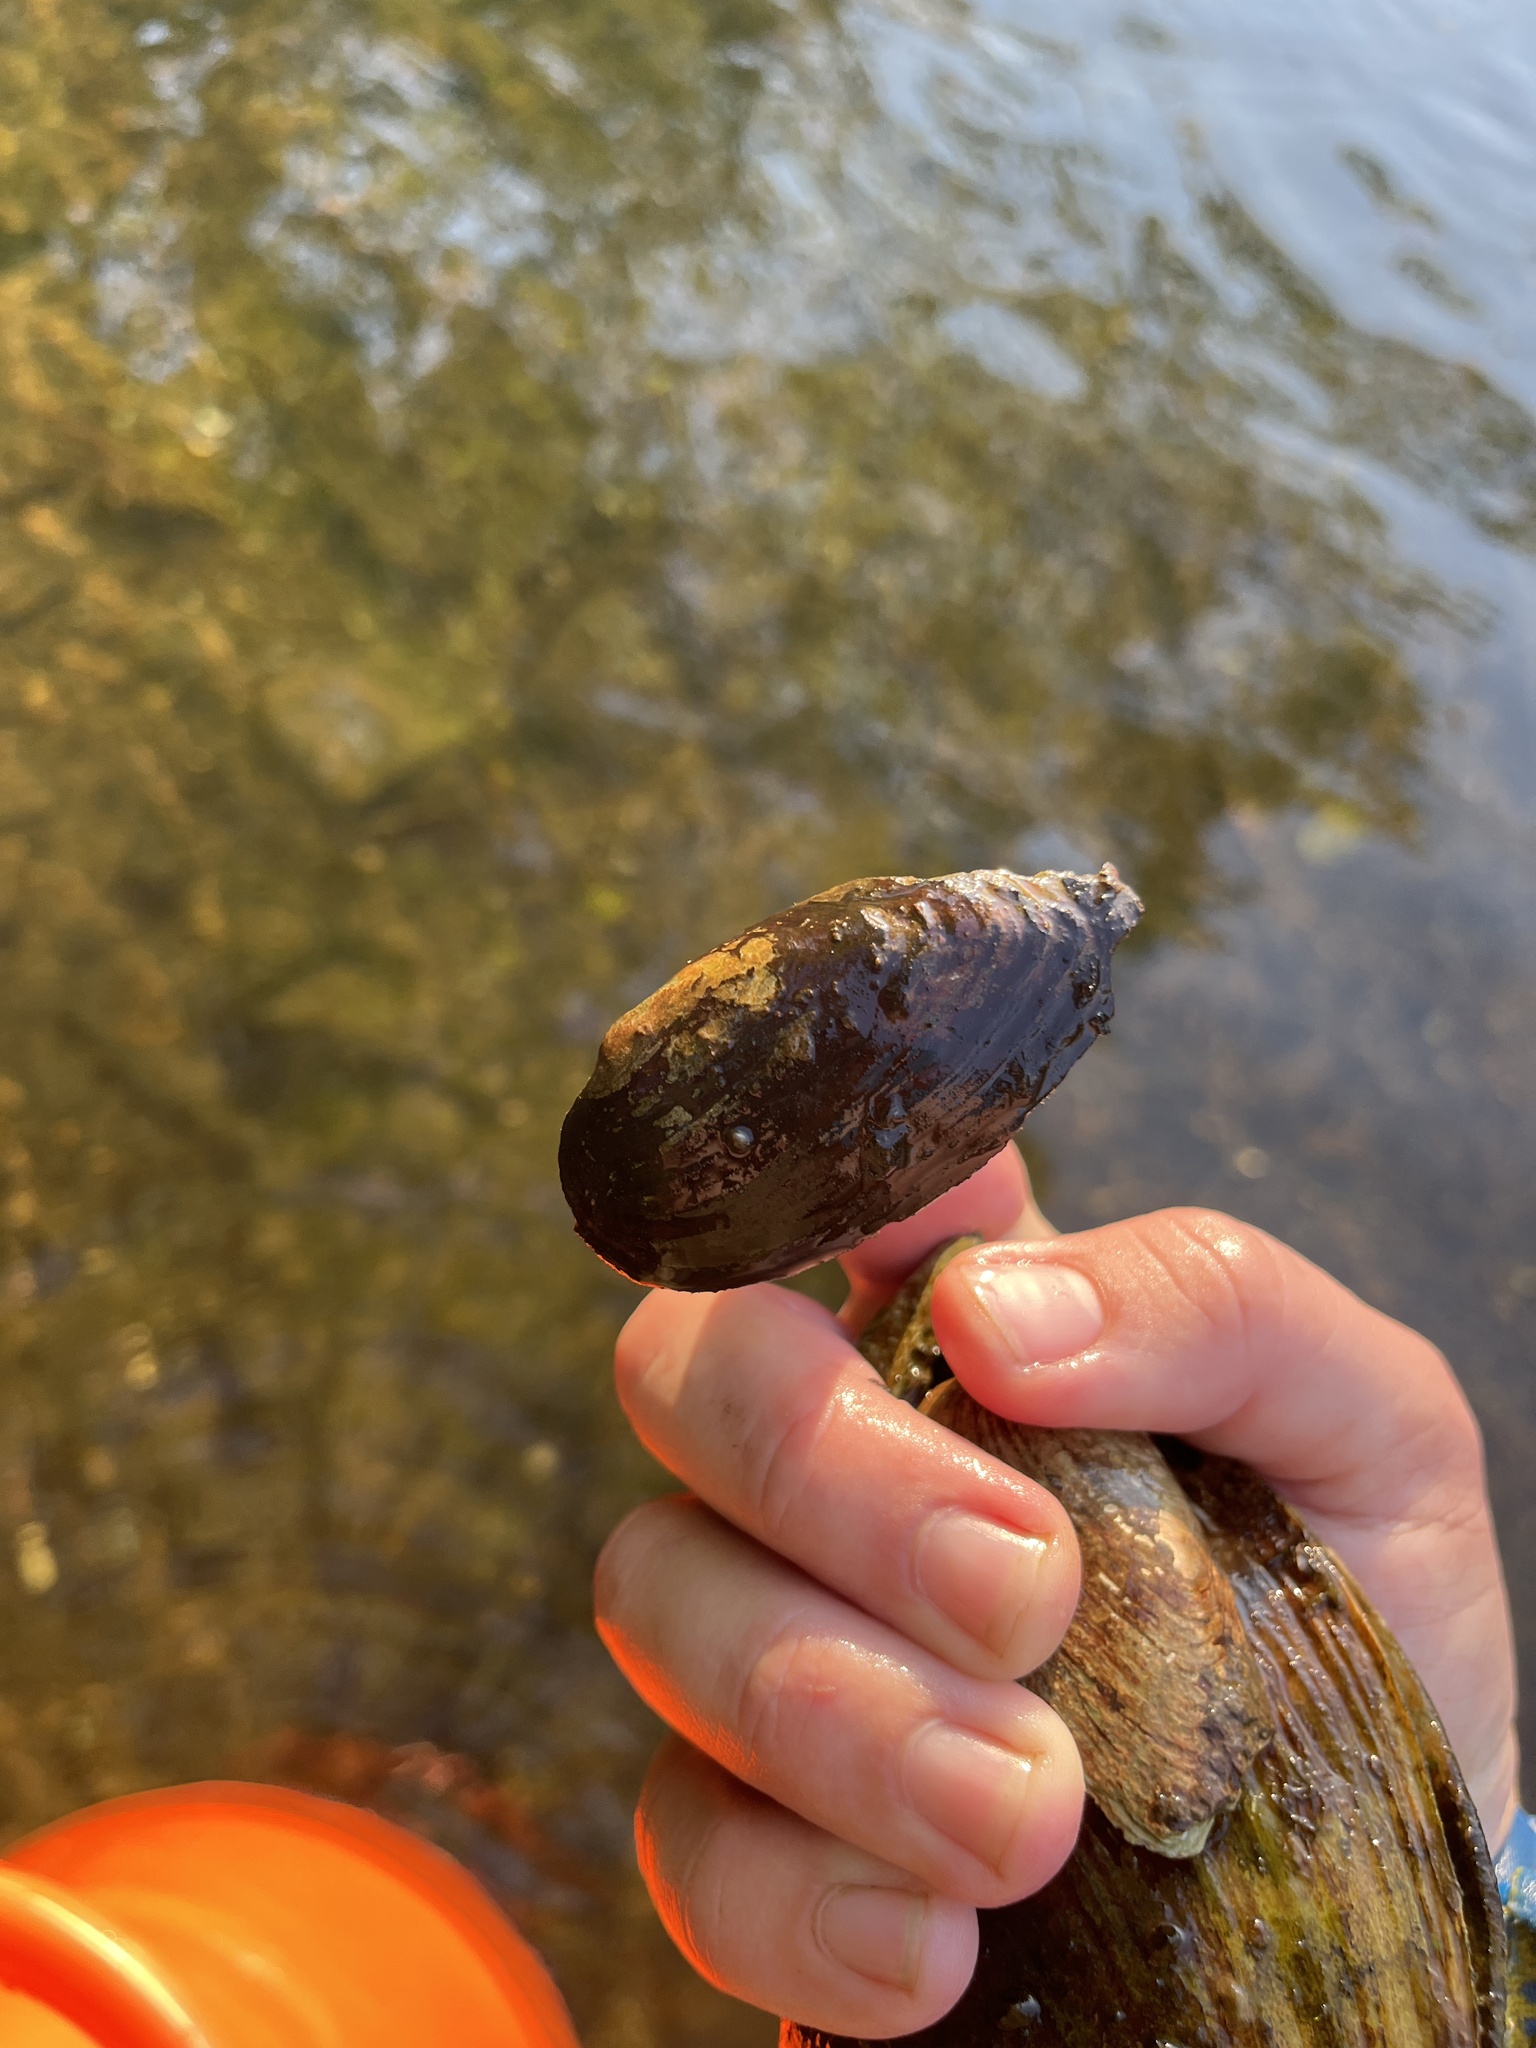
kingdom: Animalia
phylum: Mollusca
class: Bivalvia
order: Unionida
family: Unionidae
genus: Eurynia
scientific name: Eurynia dilatata
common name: Spike
